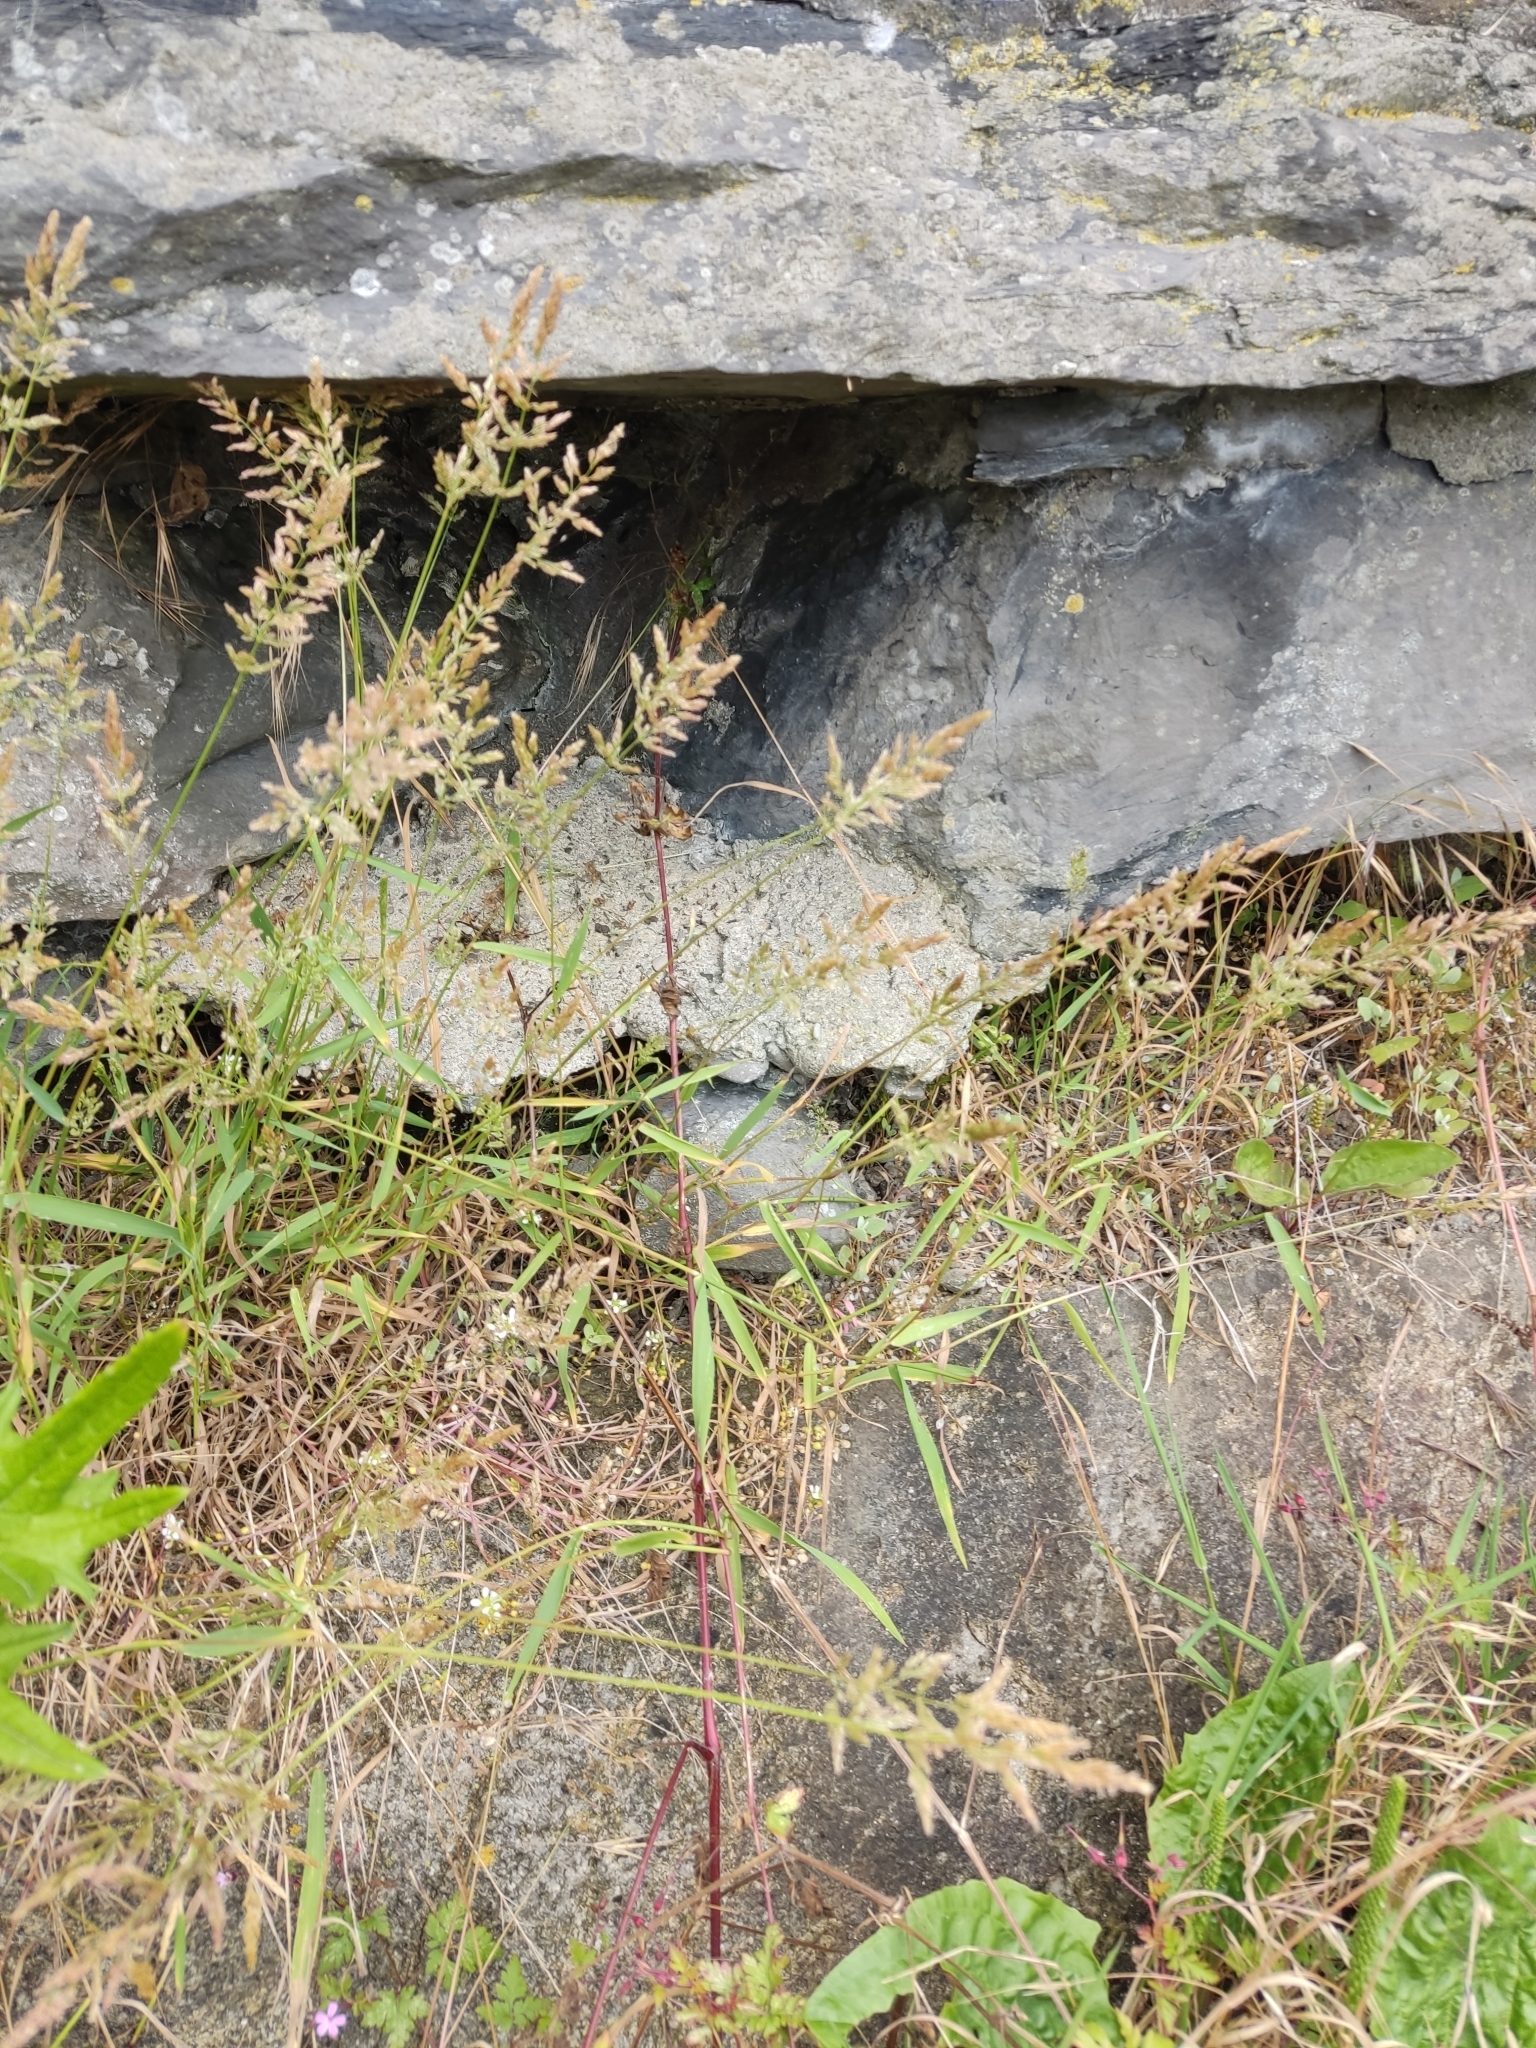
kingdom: Plantae
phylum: Tracheophyta
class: Liliopsida
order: Poales
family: Poaceae
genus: Polypogon
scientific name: Polypogon viridis
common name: Water bent
